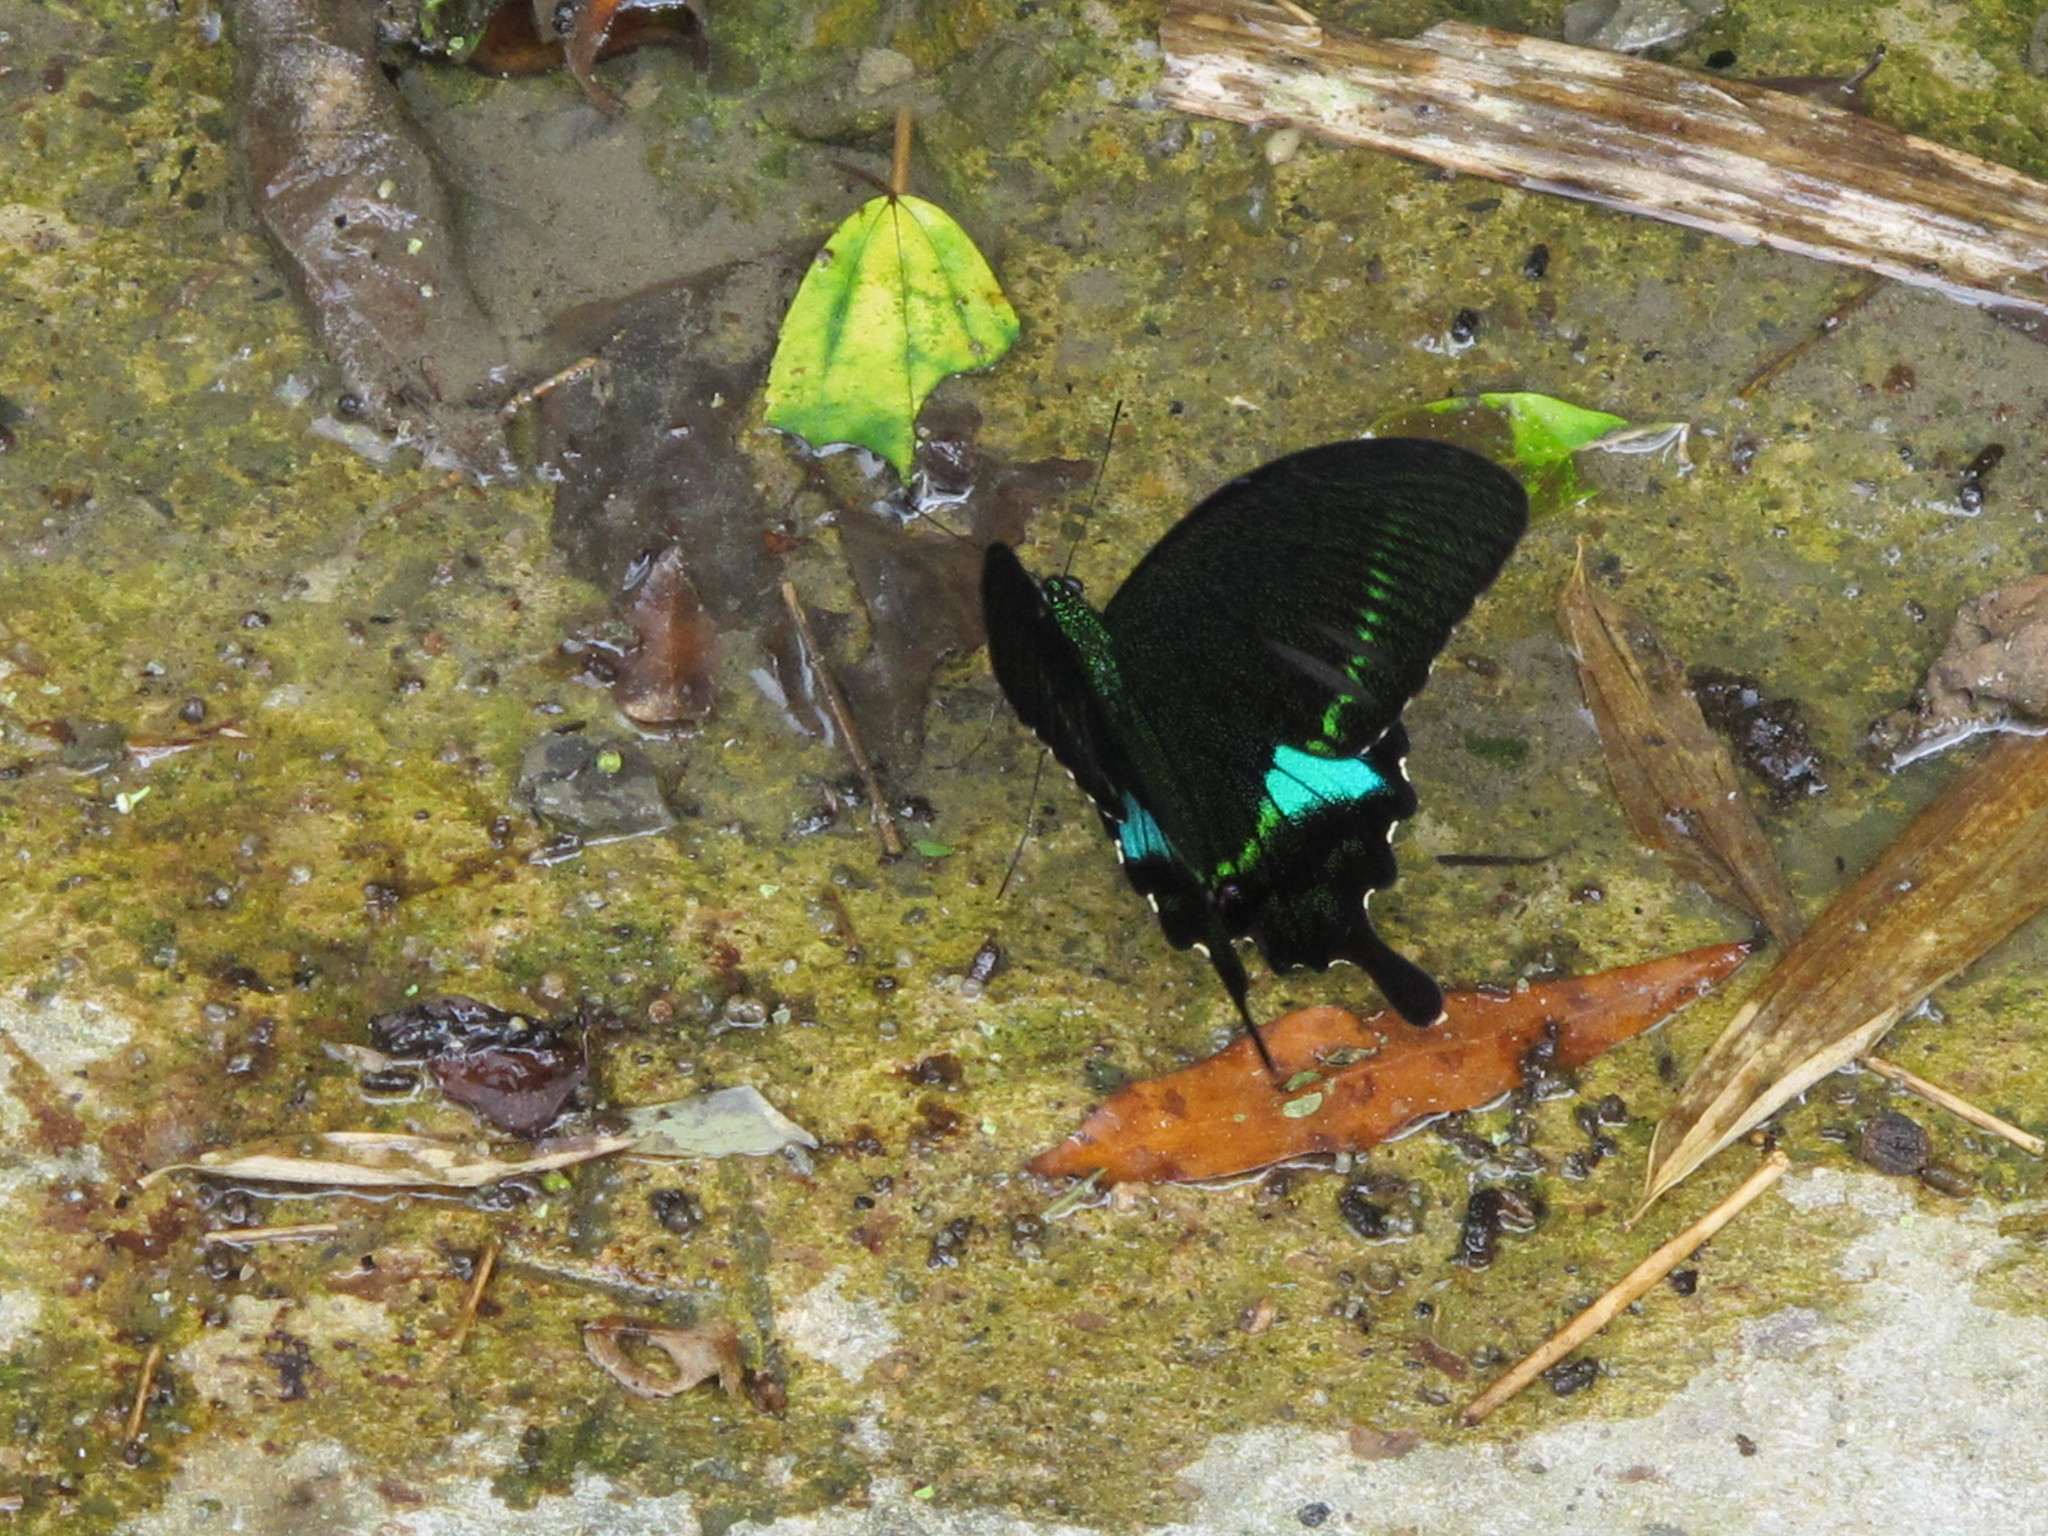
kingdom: Animalia
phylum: Arthropoda
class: Insecta
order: Lepidoptera
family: Papilionidae
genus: Papilio
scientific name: Papilio hermosanus
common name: Taiwanese glazed swallowtail
